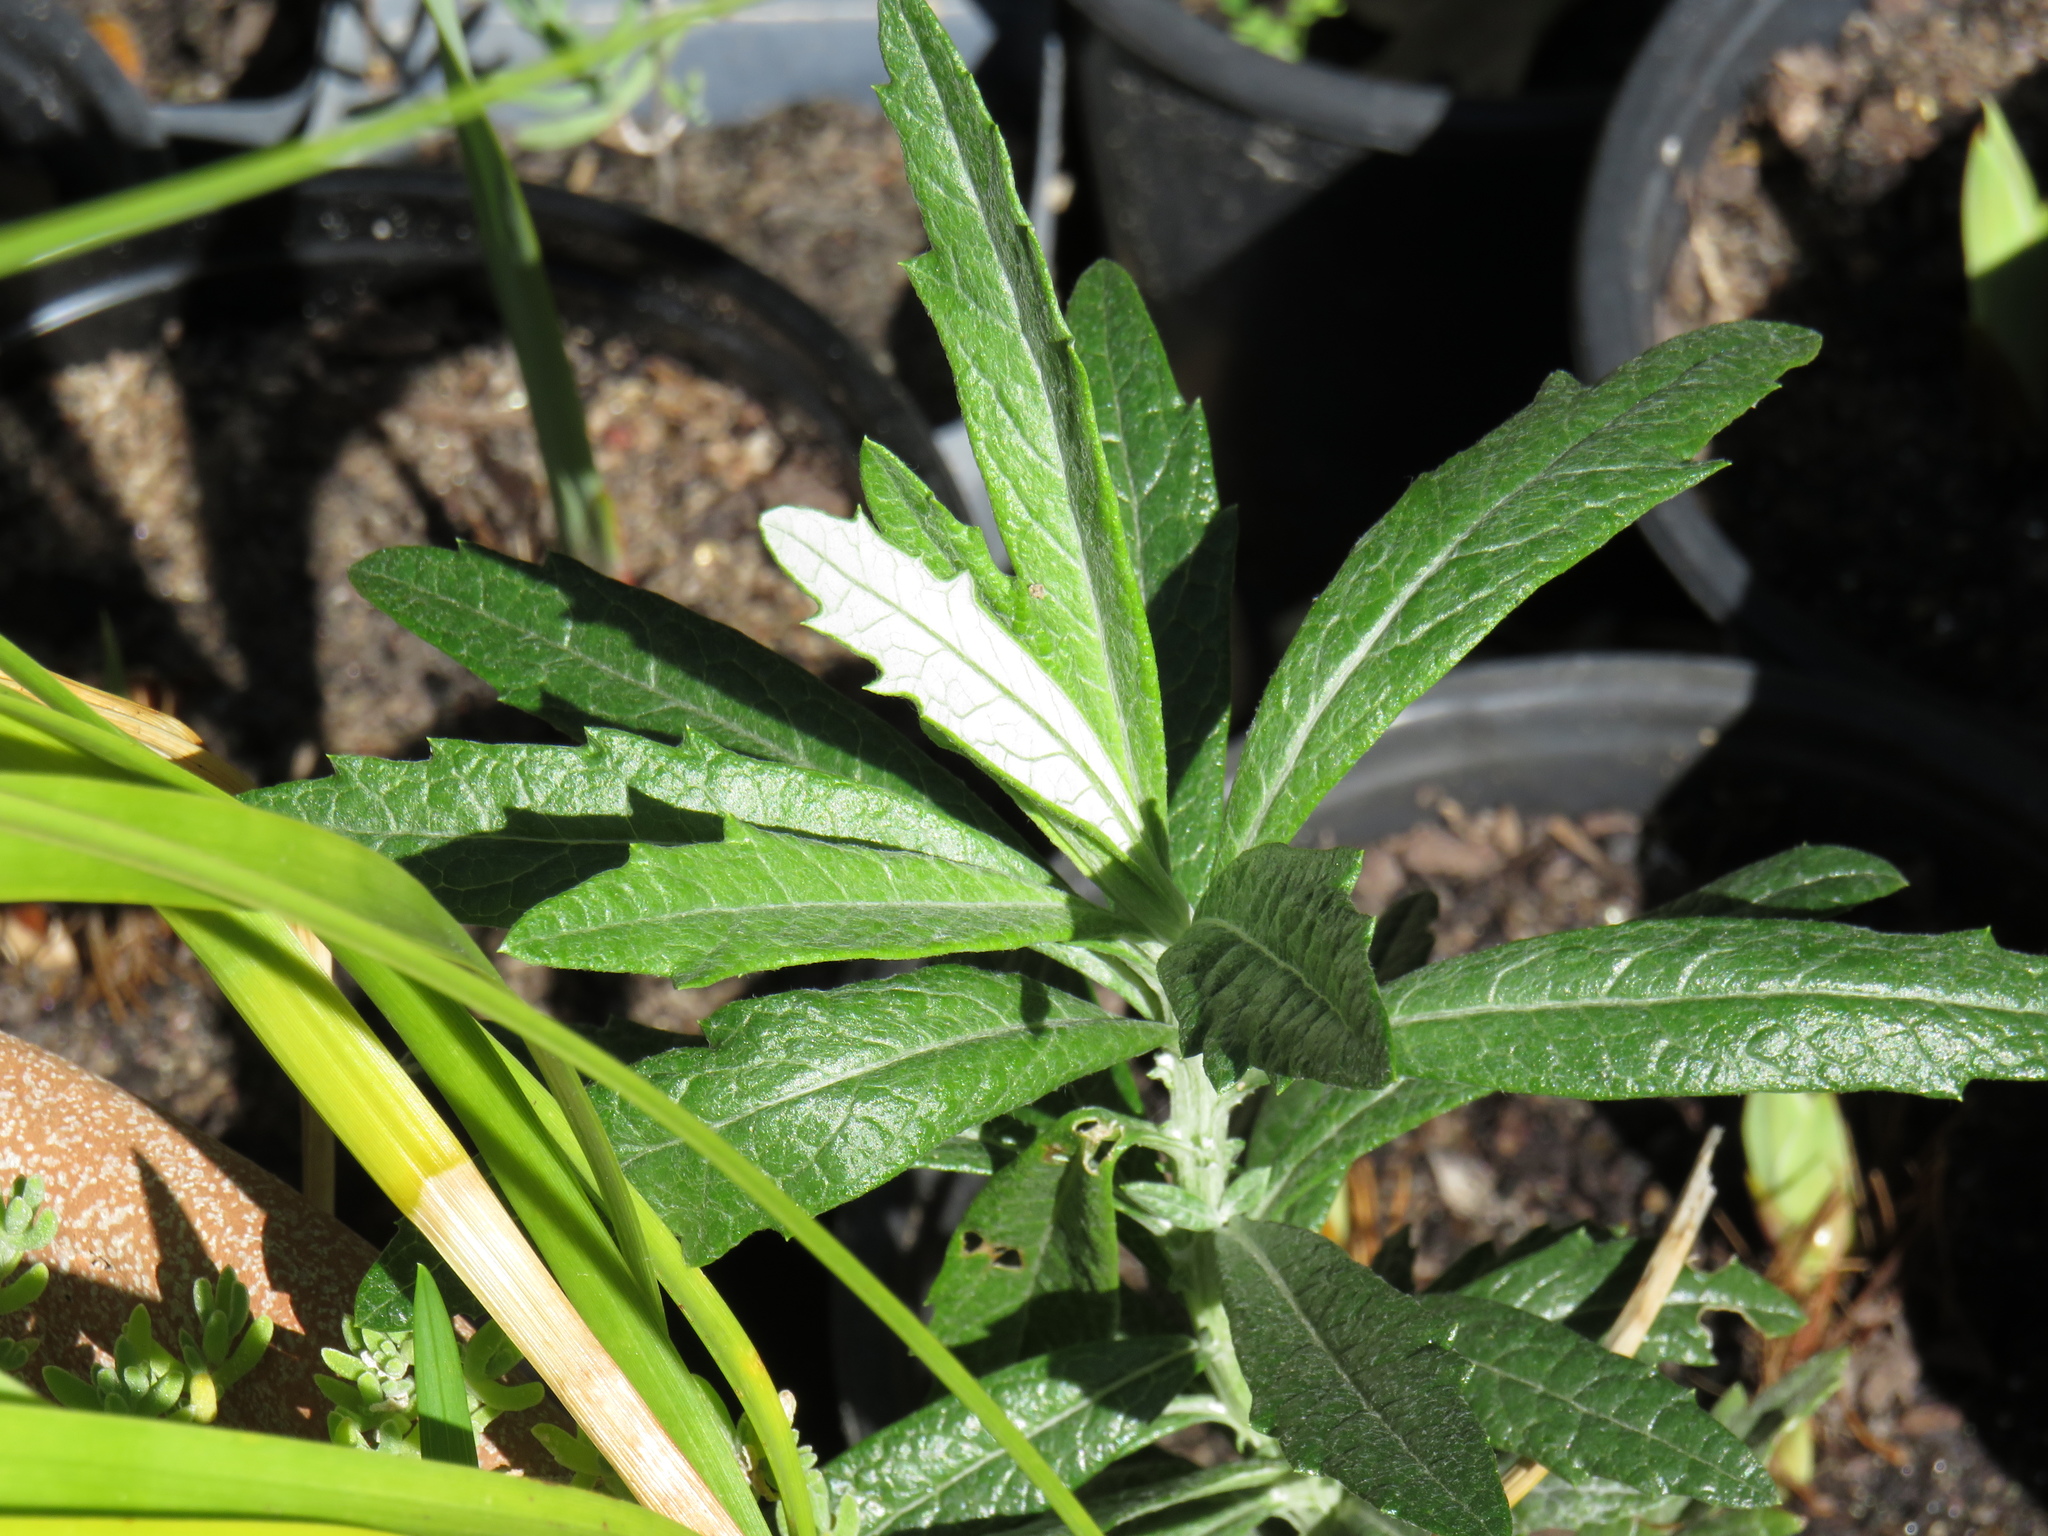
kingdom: Plantae
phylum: Tracheophyta
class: Magnoliopsida
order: Asterales
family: Asteraceae
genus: Senecio
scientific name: Senecio pterophorus
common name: Shoddy ragwort
